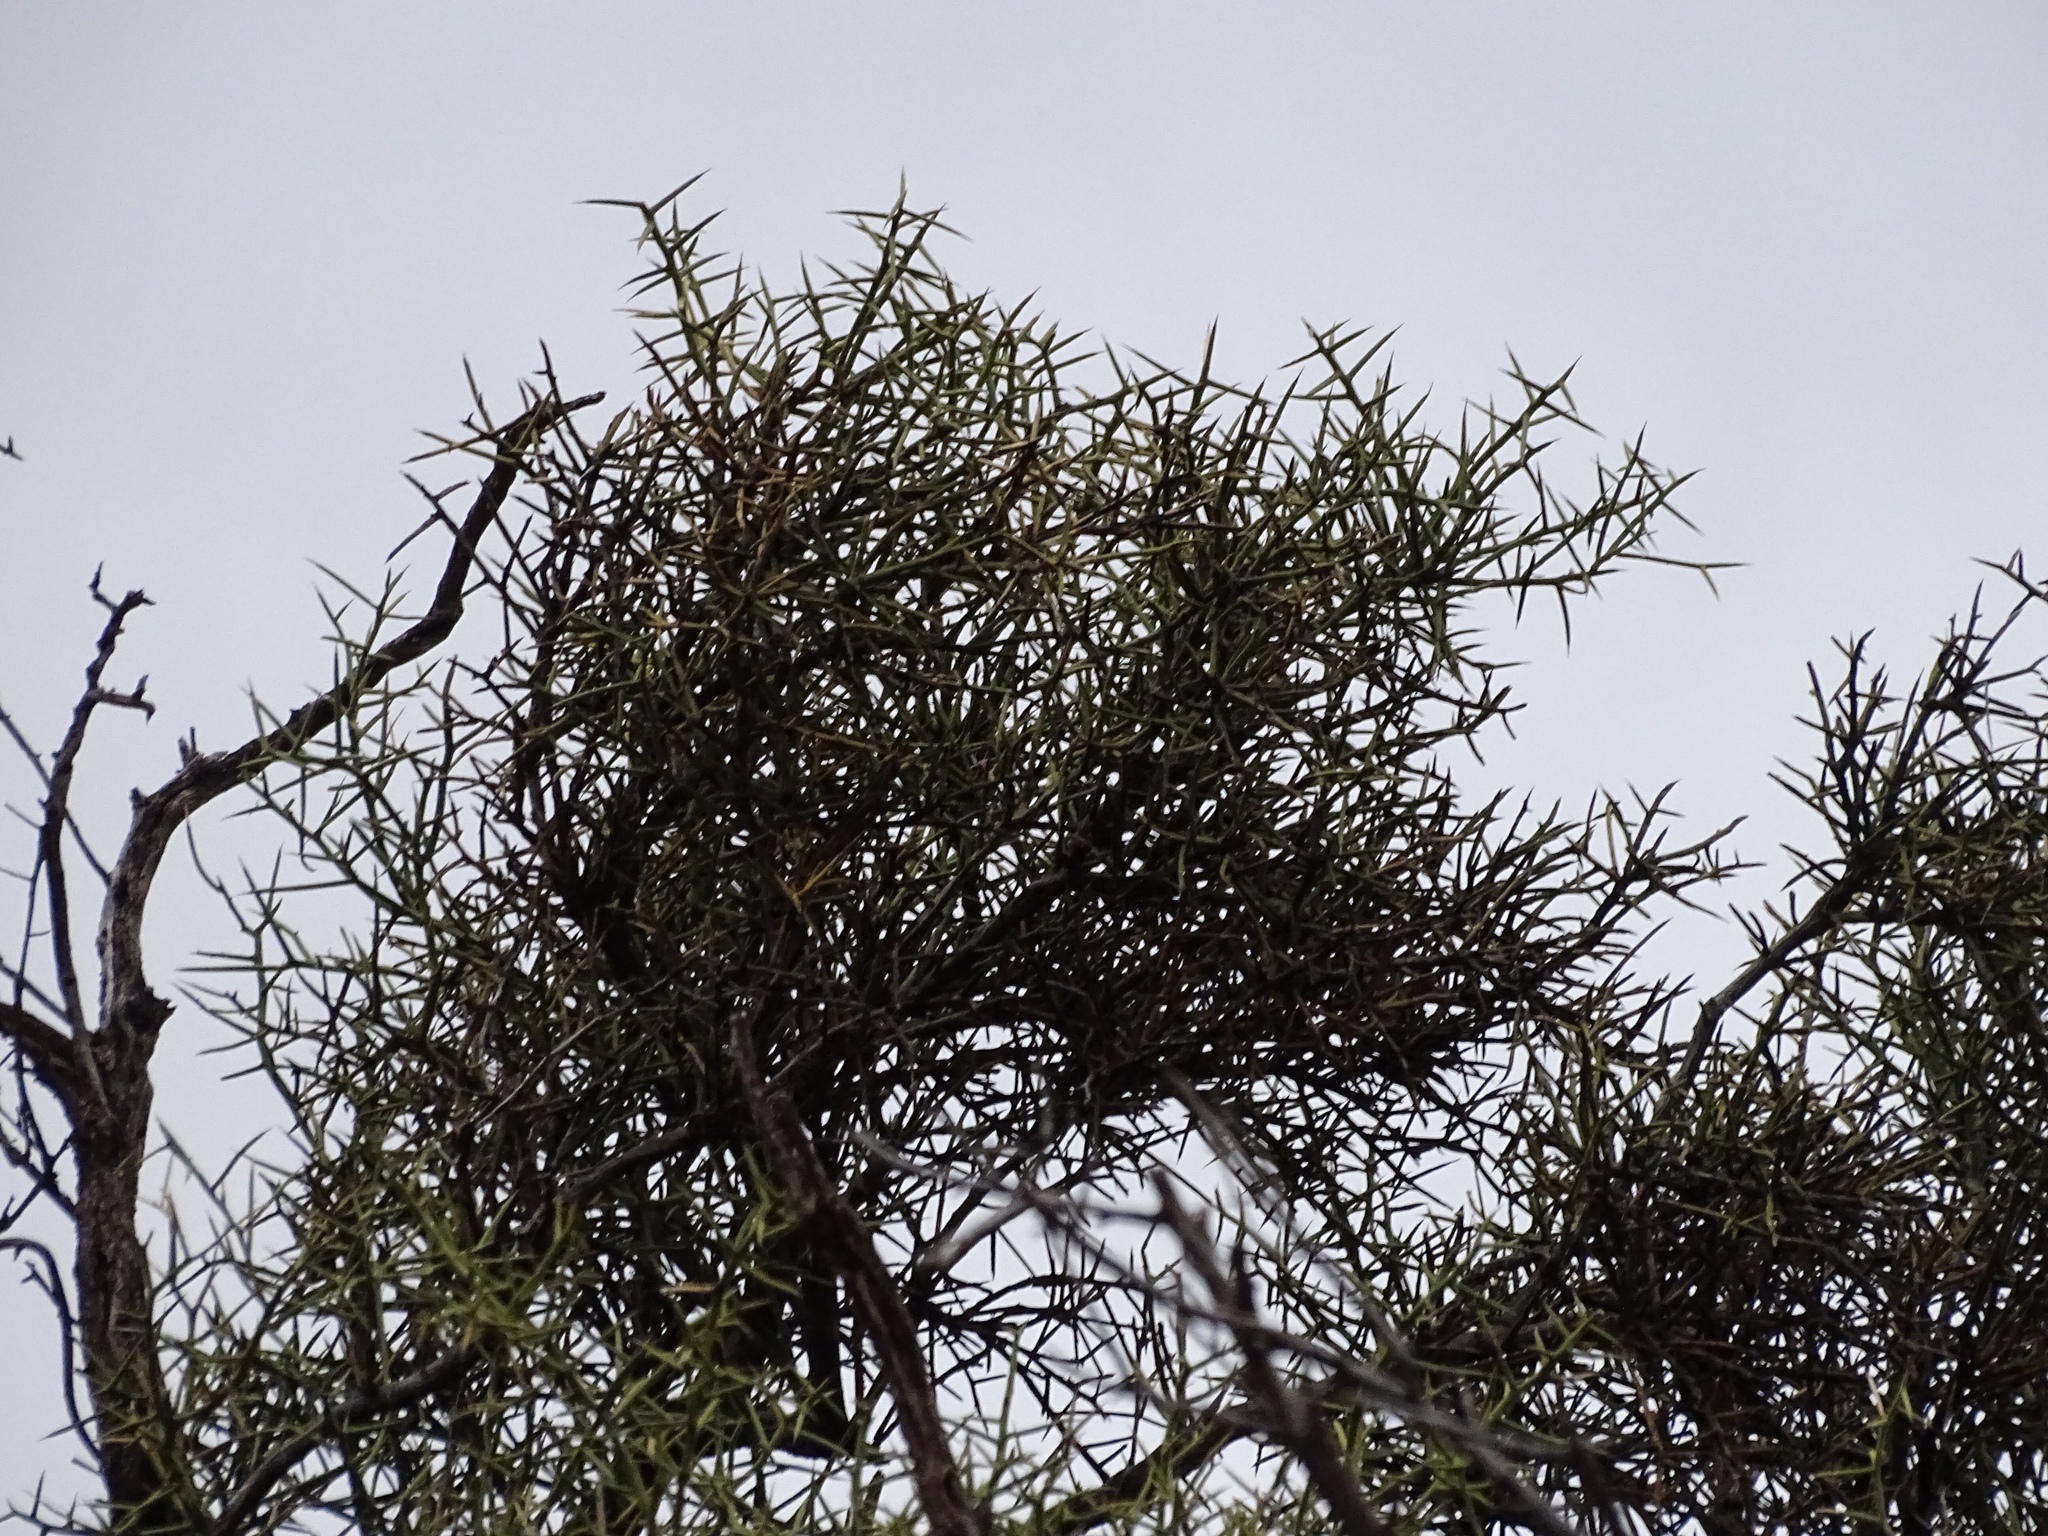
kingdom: Plantae
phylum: Tracheophyta
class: Magnoliopsida
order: Brassicales
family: Koeberliniaceae
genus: Koeberlinia
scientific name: Koeberlinia spinosa
